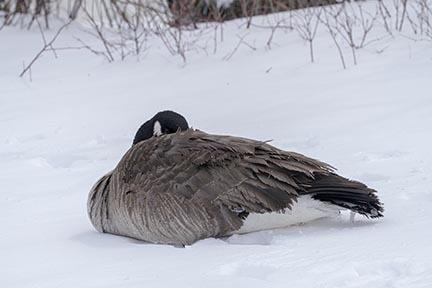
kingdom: Animalia
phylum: Chordata
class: Aves
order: Anseriformes
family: Anatidae
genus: Branta
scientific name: Branta canadensis
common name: Canada goose
